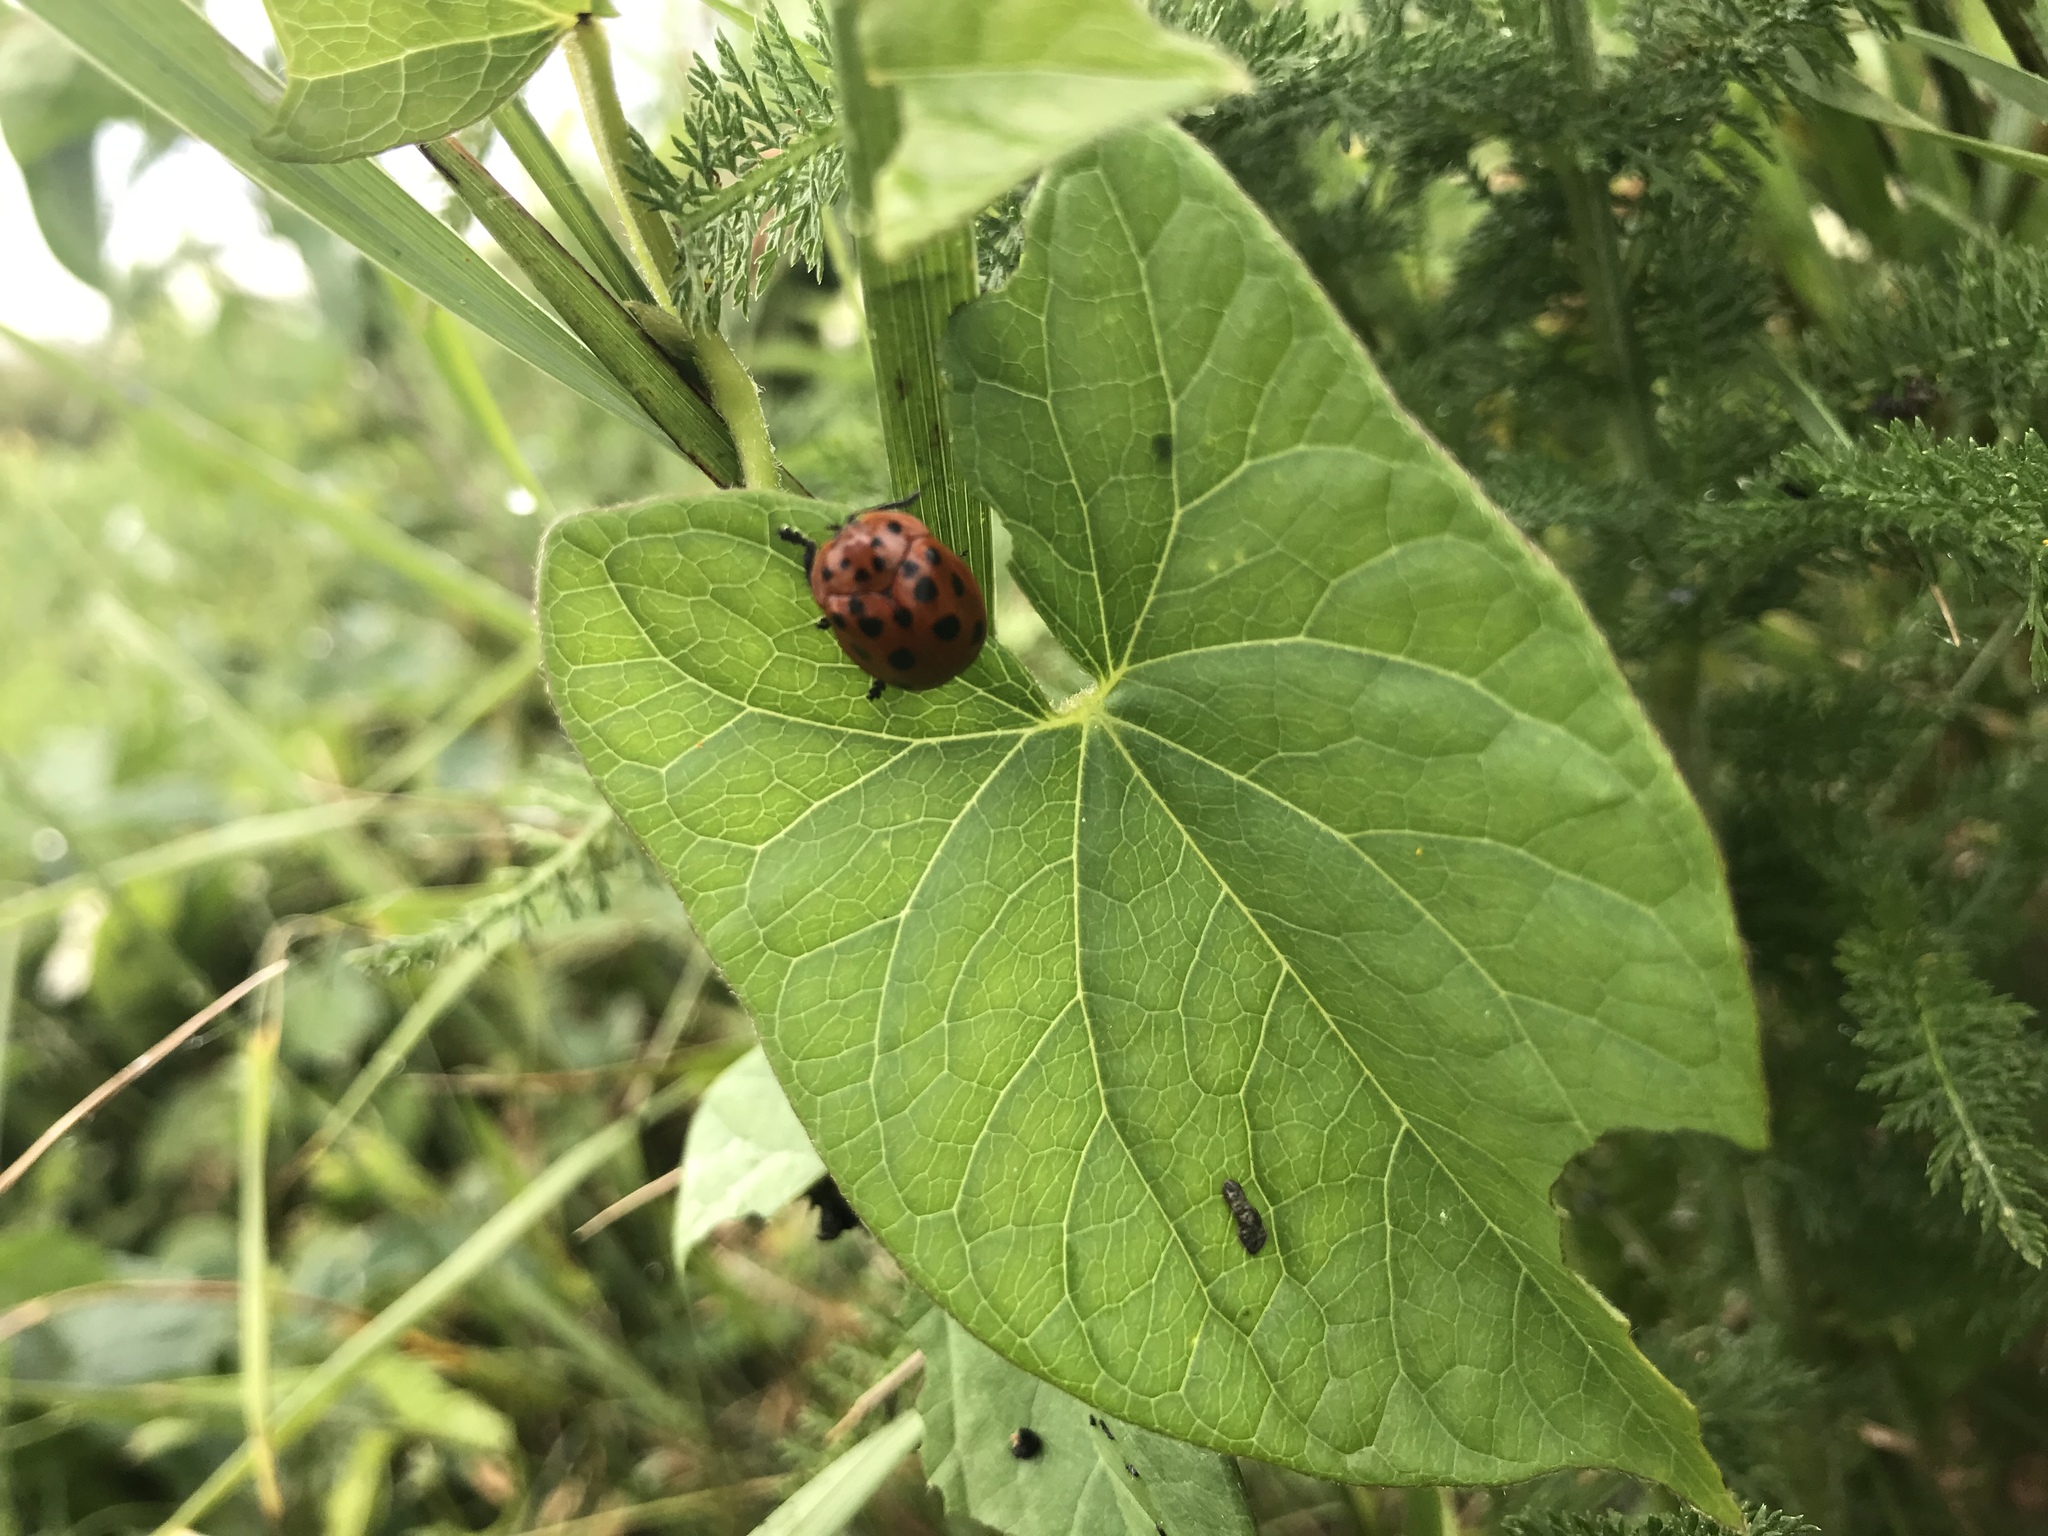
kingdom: Animalia
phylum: Arthropoda
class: Insecta
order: Coleoptera
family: Chrysomelidae
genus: Chelymorpha
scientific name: Chelymorpha cassidea
